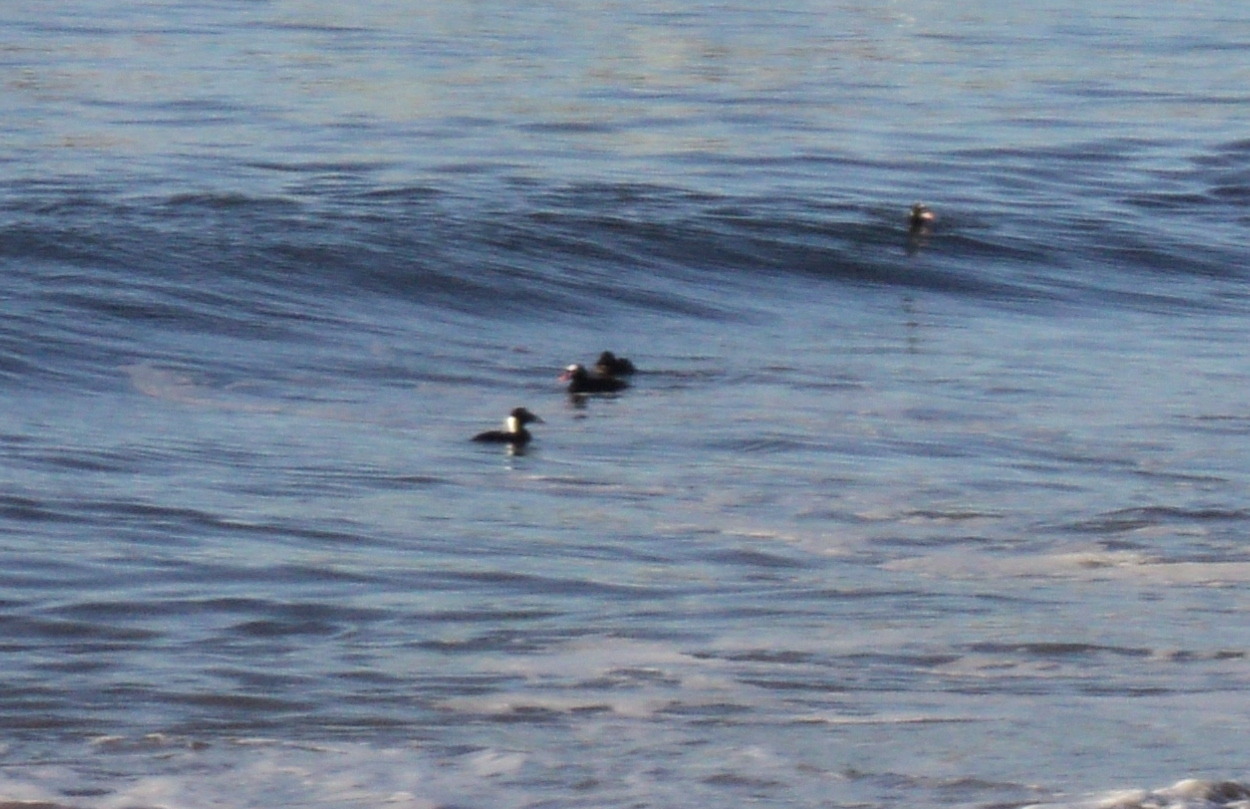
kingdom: Animalia
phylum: Chordata
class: Aves
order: Anseriformes
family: Anatidae
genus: Melanitta
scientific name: Melanitta perspicillata
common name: Surf scoter
